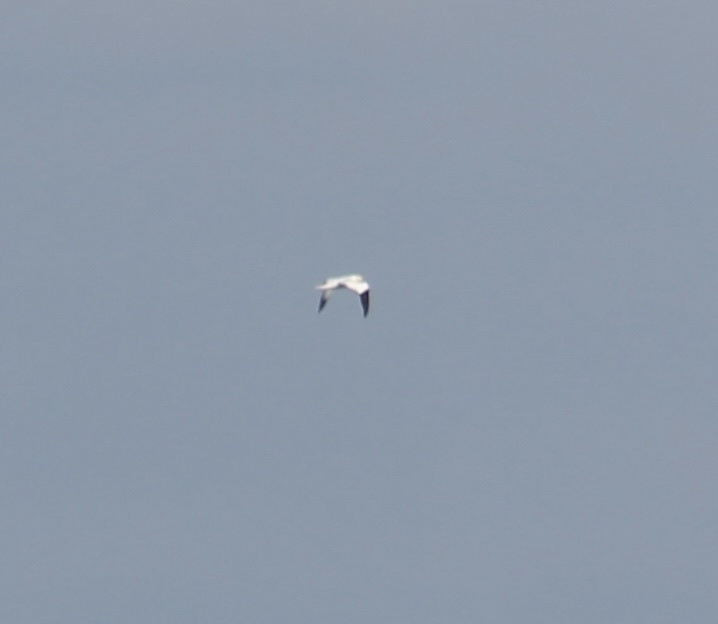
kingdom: Animalia
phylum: Chordata
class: Aves
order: Suliformes
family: Sulidae
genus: Morus
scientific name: Morus bassanus
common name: Northern gannet
